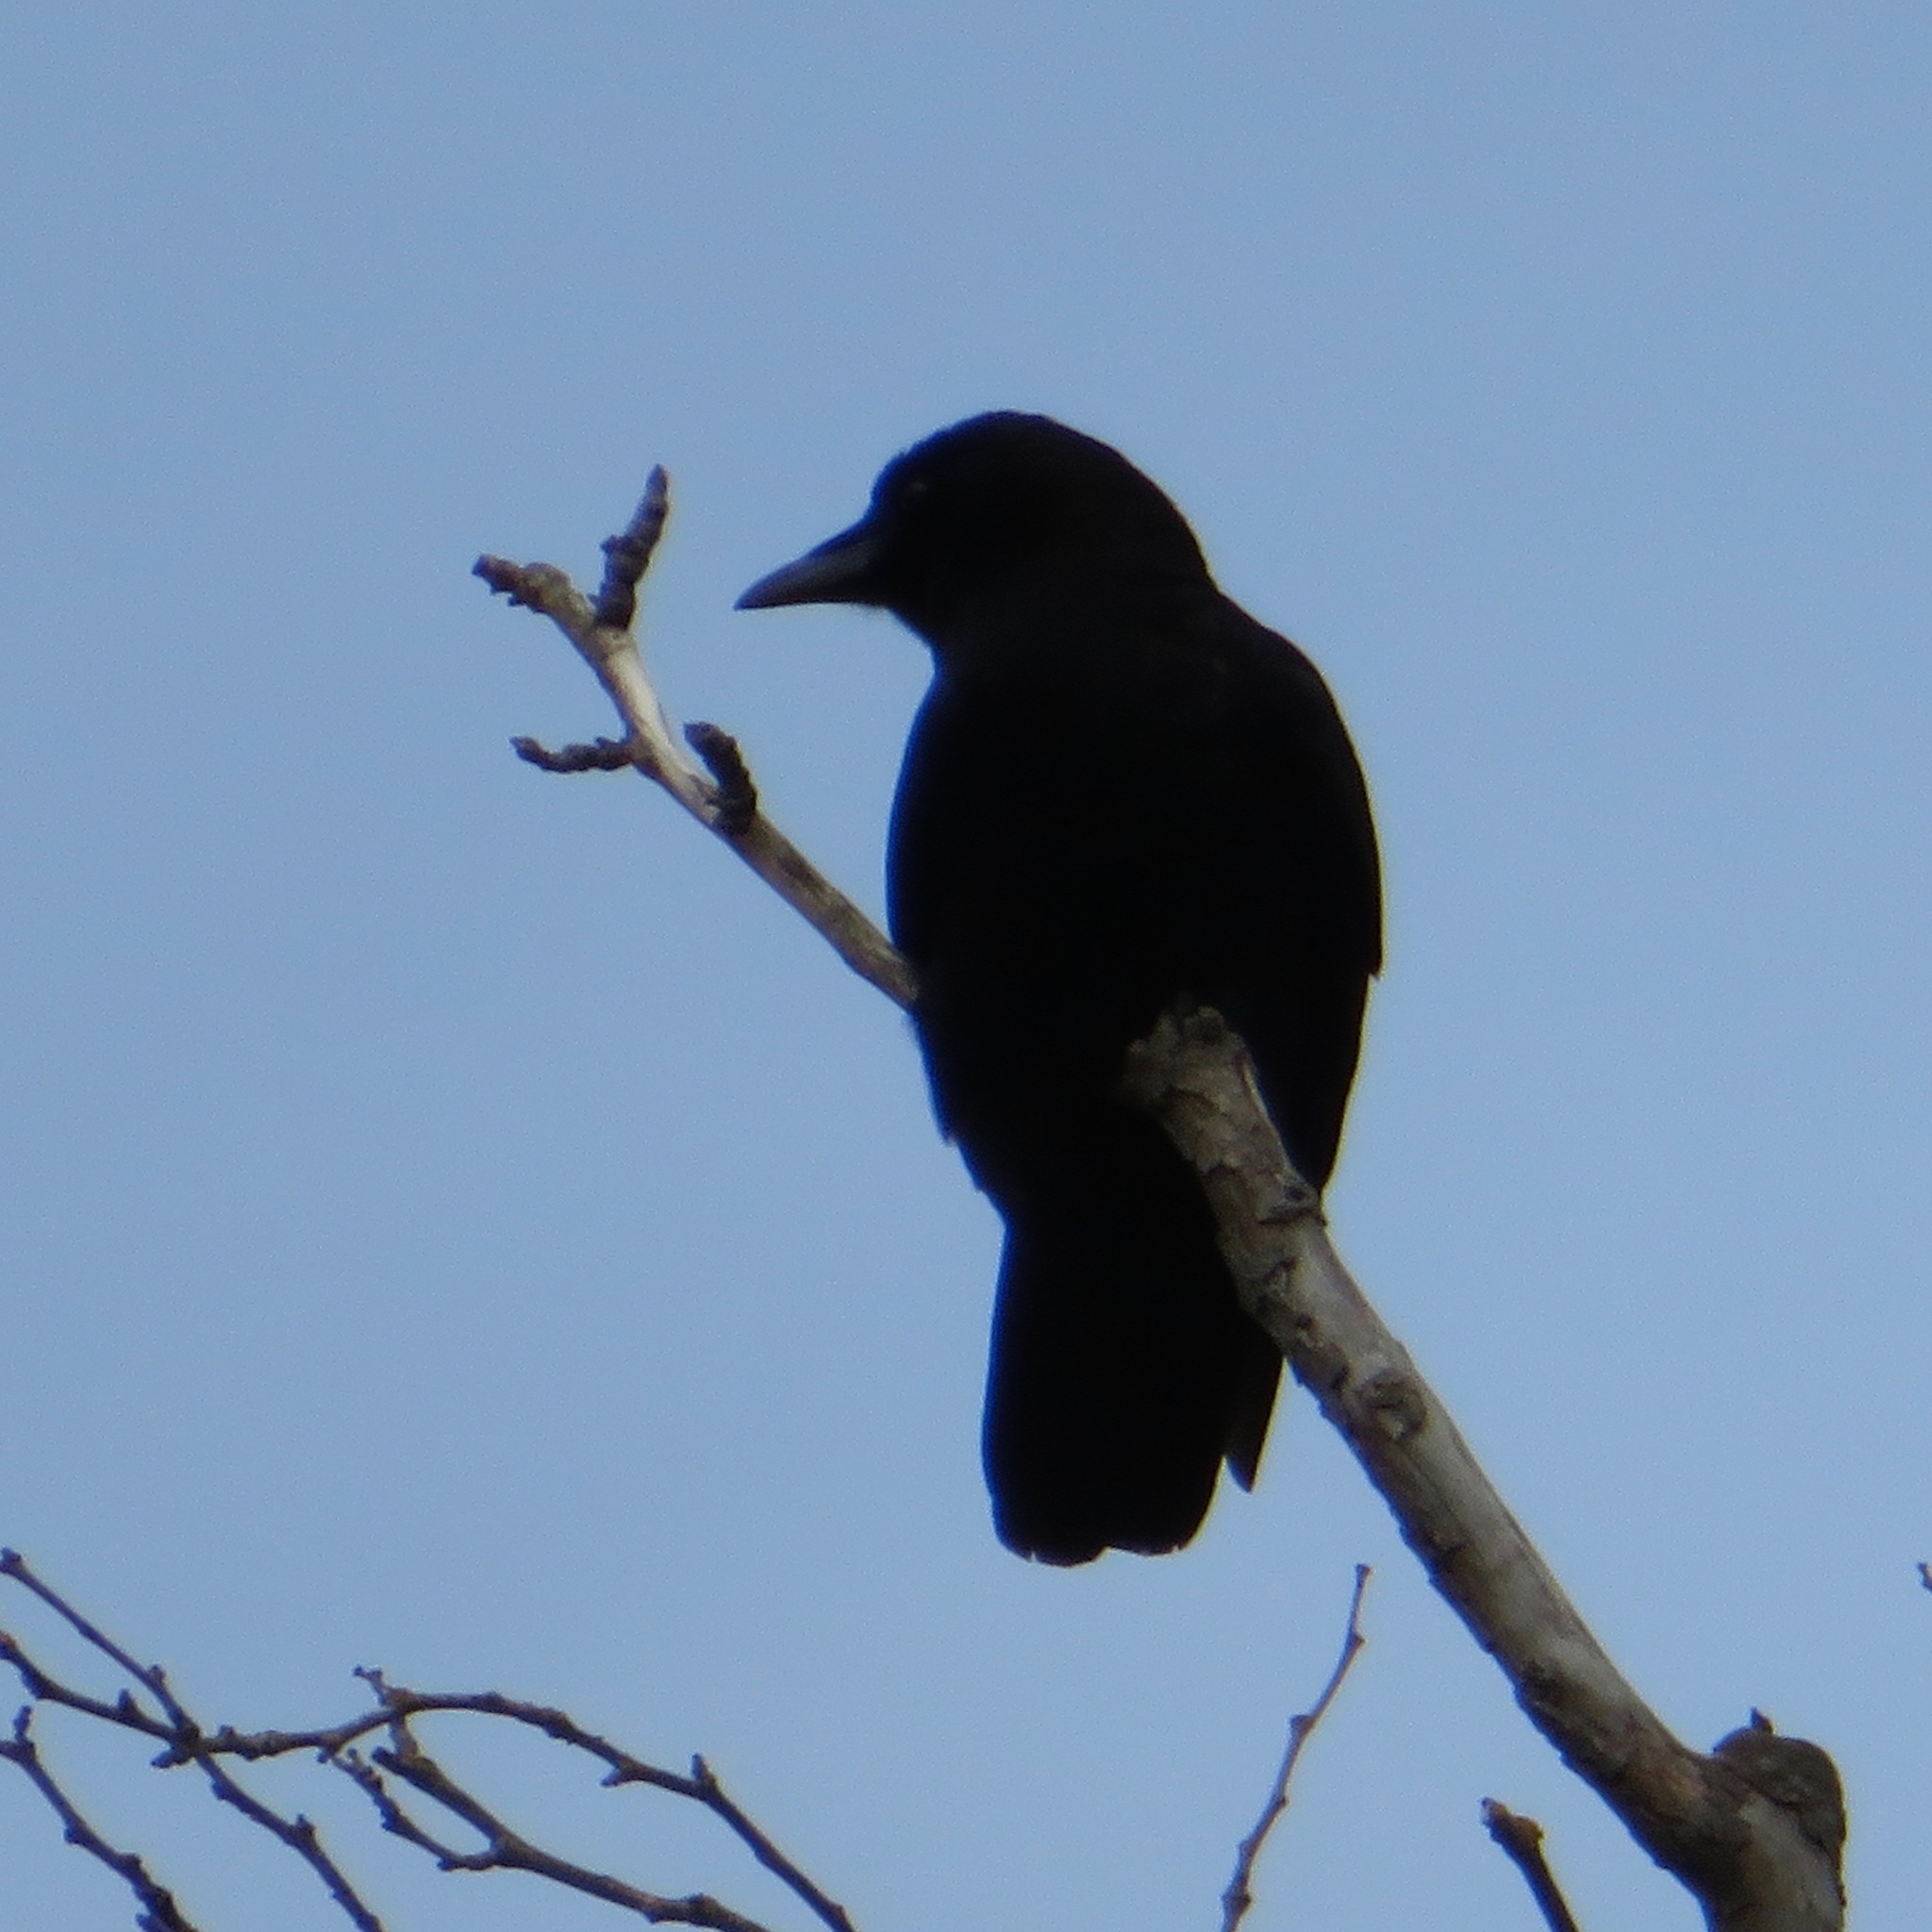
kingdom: Animalia
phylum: Chordata
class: Aves
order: Passeriformes
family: Corvidae
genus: Corvus
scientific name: Corvus brachyrhynchos
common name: American crow
